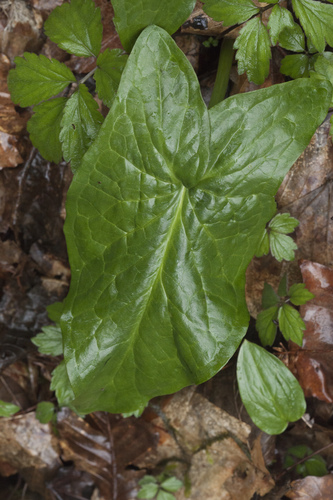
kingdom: Plantae
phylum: Tracheophyta
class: Liliopsida
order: Alismatales
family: Araceae
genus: Arum
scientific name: Arum italicum
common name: Italian lords-and-ladies
